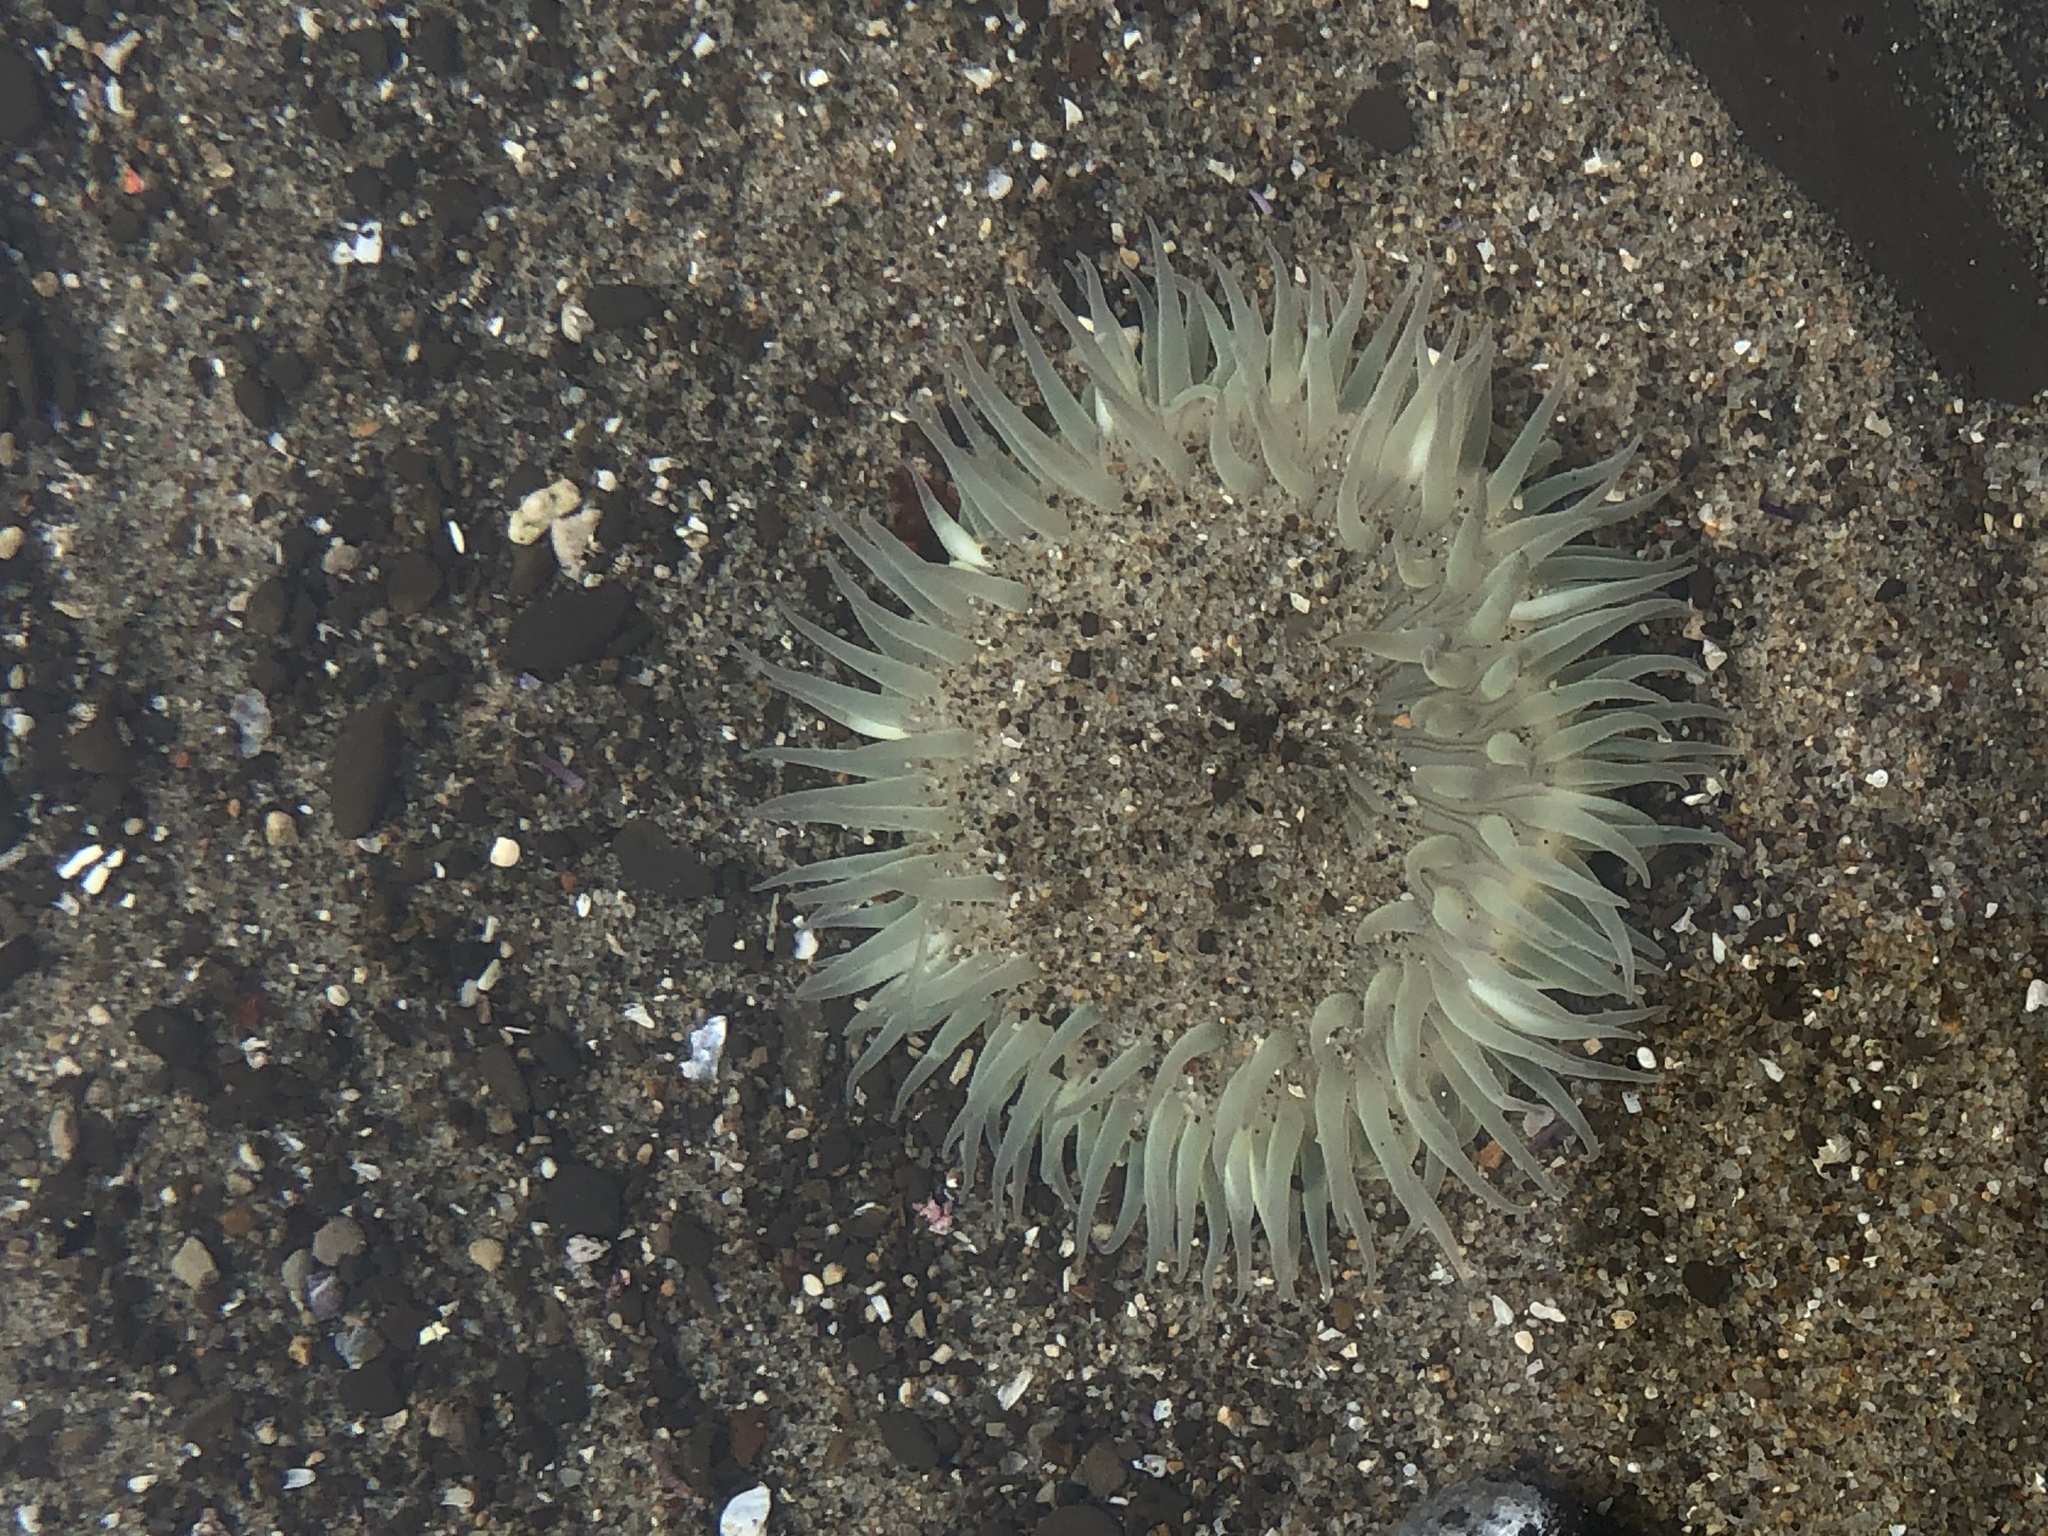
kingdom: Animalia
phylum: Cnidaria
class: Anthozoa
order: Actiniaria
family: Actiniidae
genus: Anthopleura
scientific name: Anthopleura sola
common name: Sun anemone
